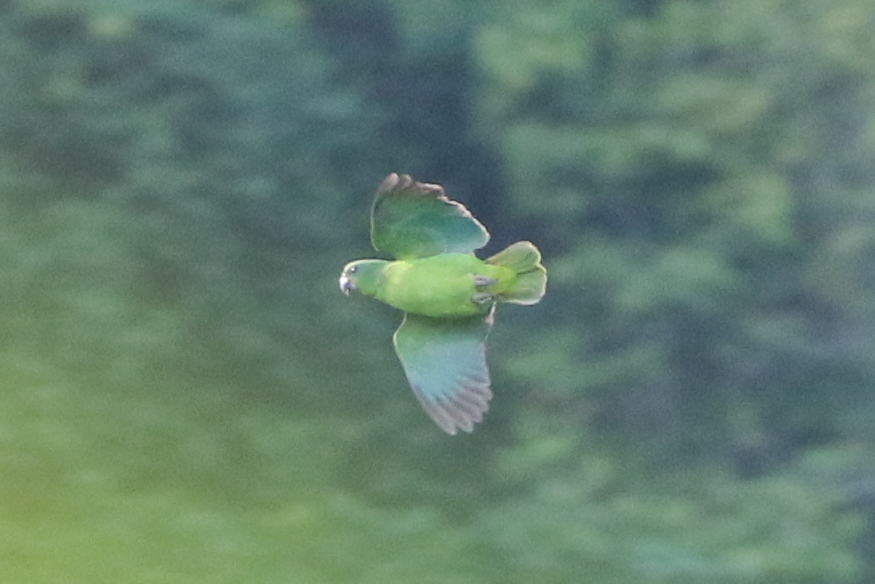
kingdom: Animalia
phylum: Chordata
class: Aves
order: Psittaciformes
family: Psittacidae
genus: Amazona
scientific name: Amazona agilis
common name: Black-billed amazon
